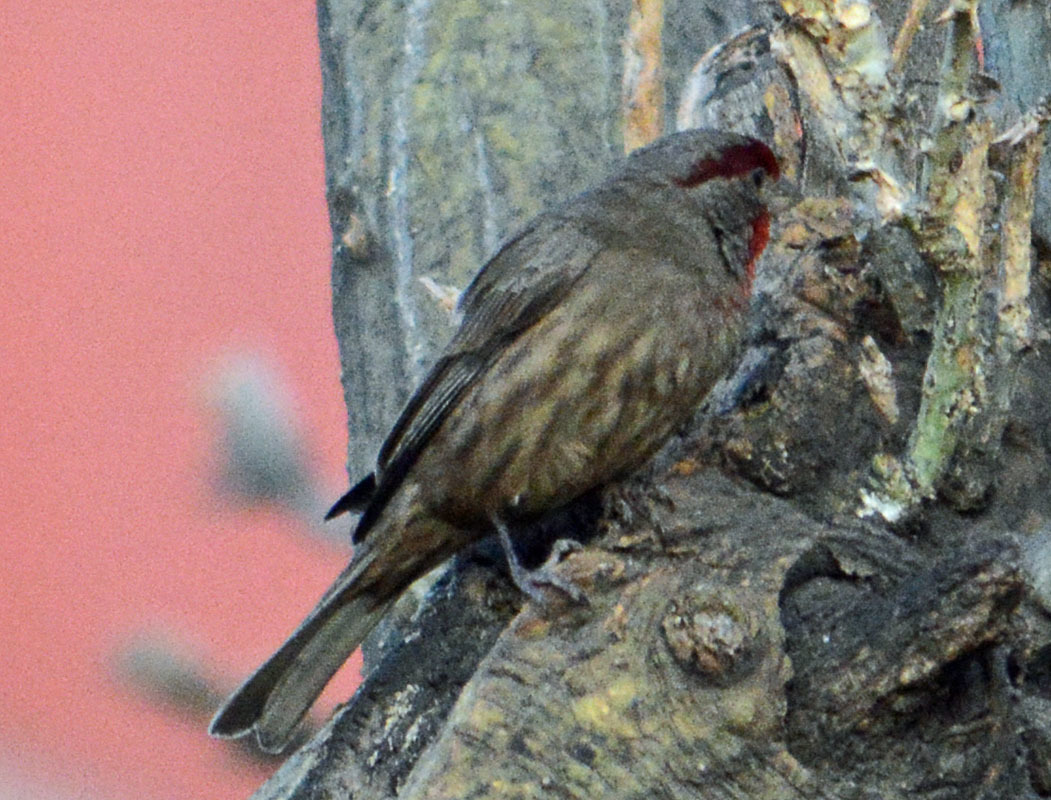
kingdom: Animalia
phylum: Chordata
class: Aves
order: Passeriformes
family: Fringillidae
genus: Haemorhous
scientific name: Haemorhous mexicanus
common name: House finch
